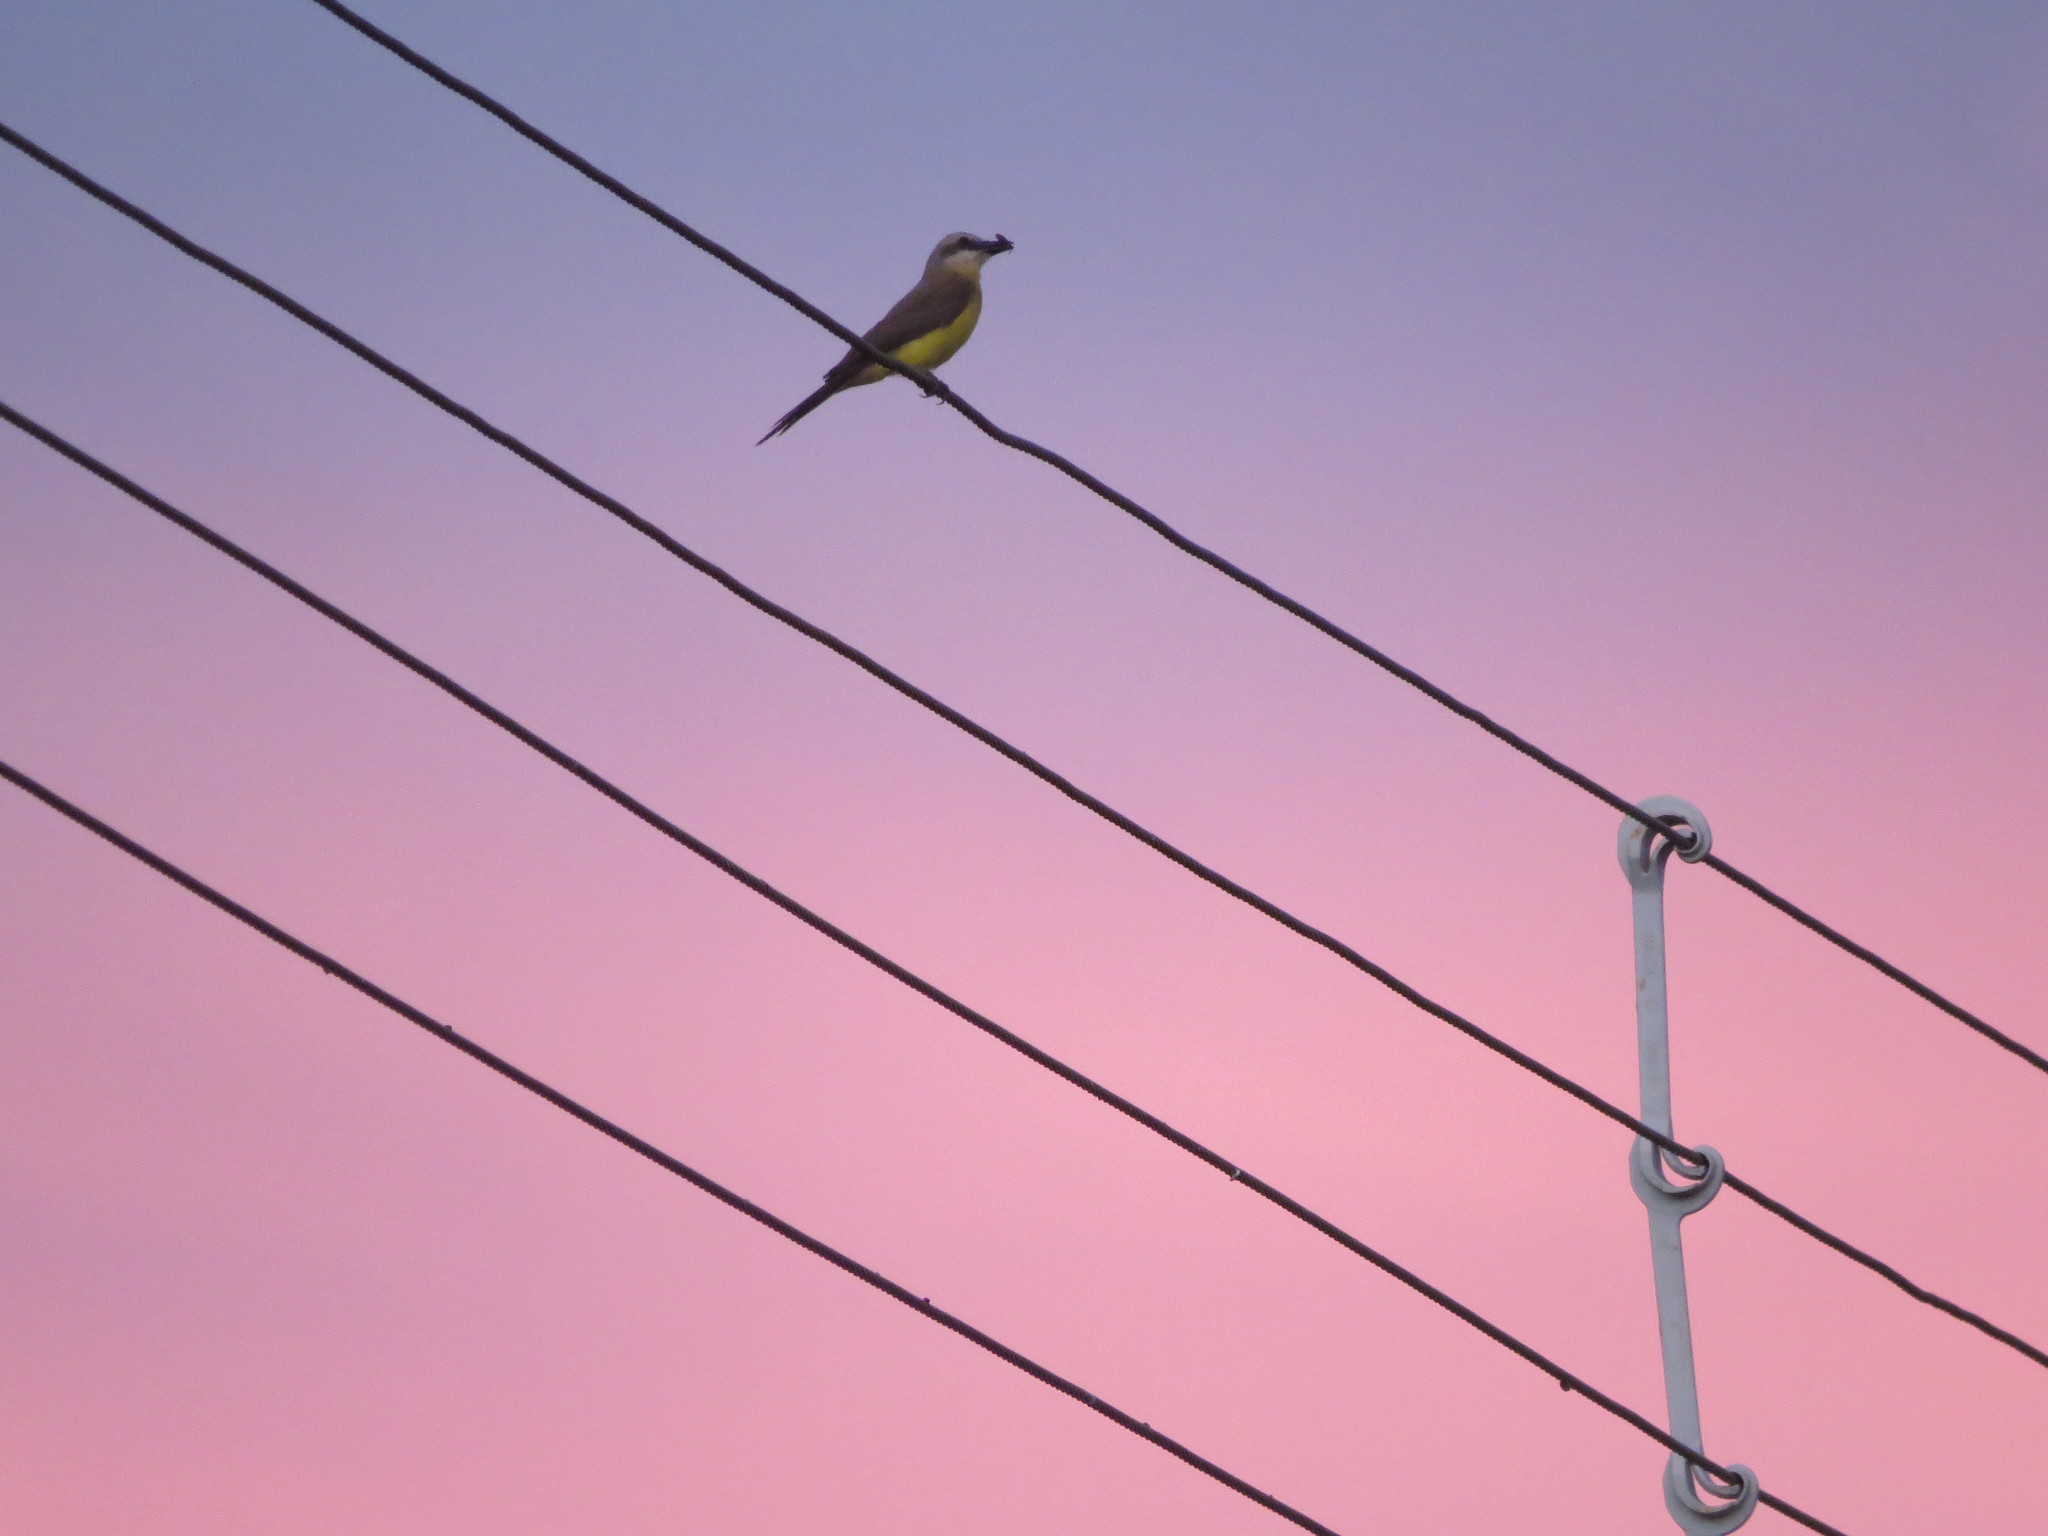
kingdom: Animalia
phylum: Chordata
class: Aves
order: Passeriformes
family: Tyrannidae
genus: Tyrannus
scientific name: Tyrannus melancholicus
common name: Tropical kingbird
